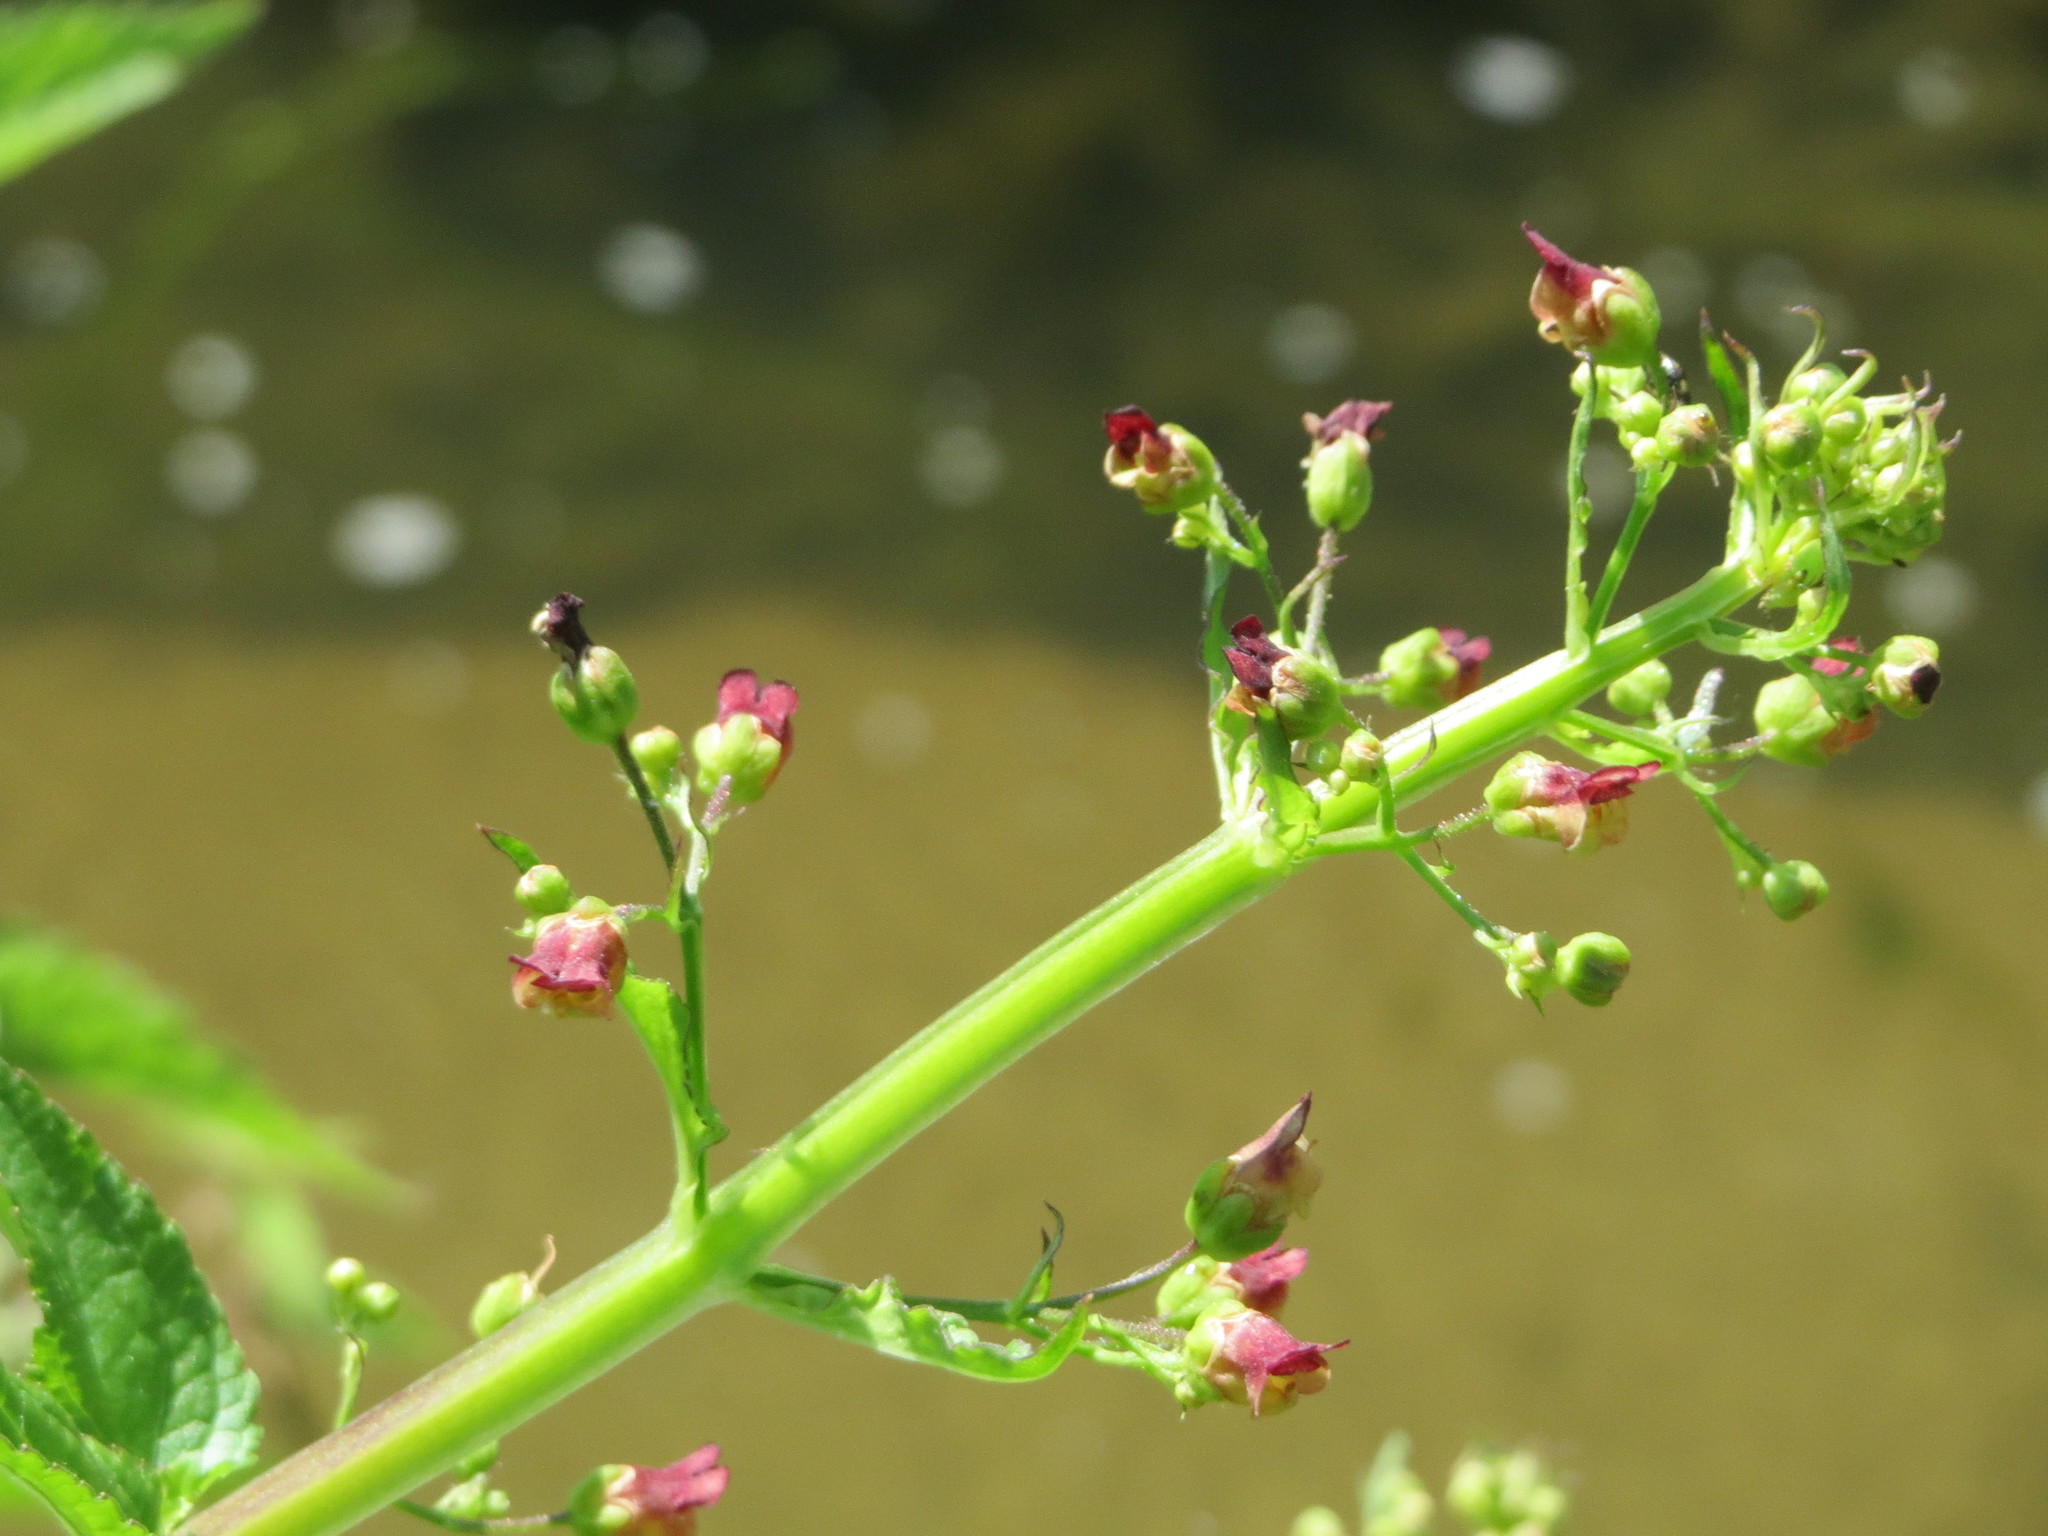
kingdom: Plantae
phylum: Tracheophyta
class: Magnoliopsida
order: Lamiales
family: Scrophulariaceae
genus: Scrophularia
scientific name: Scrophularia umbrosa
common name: Green figwort
